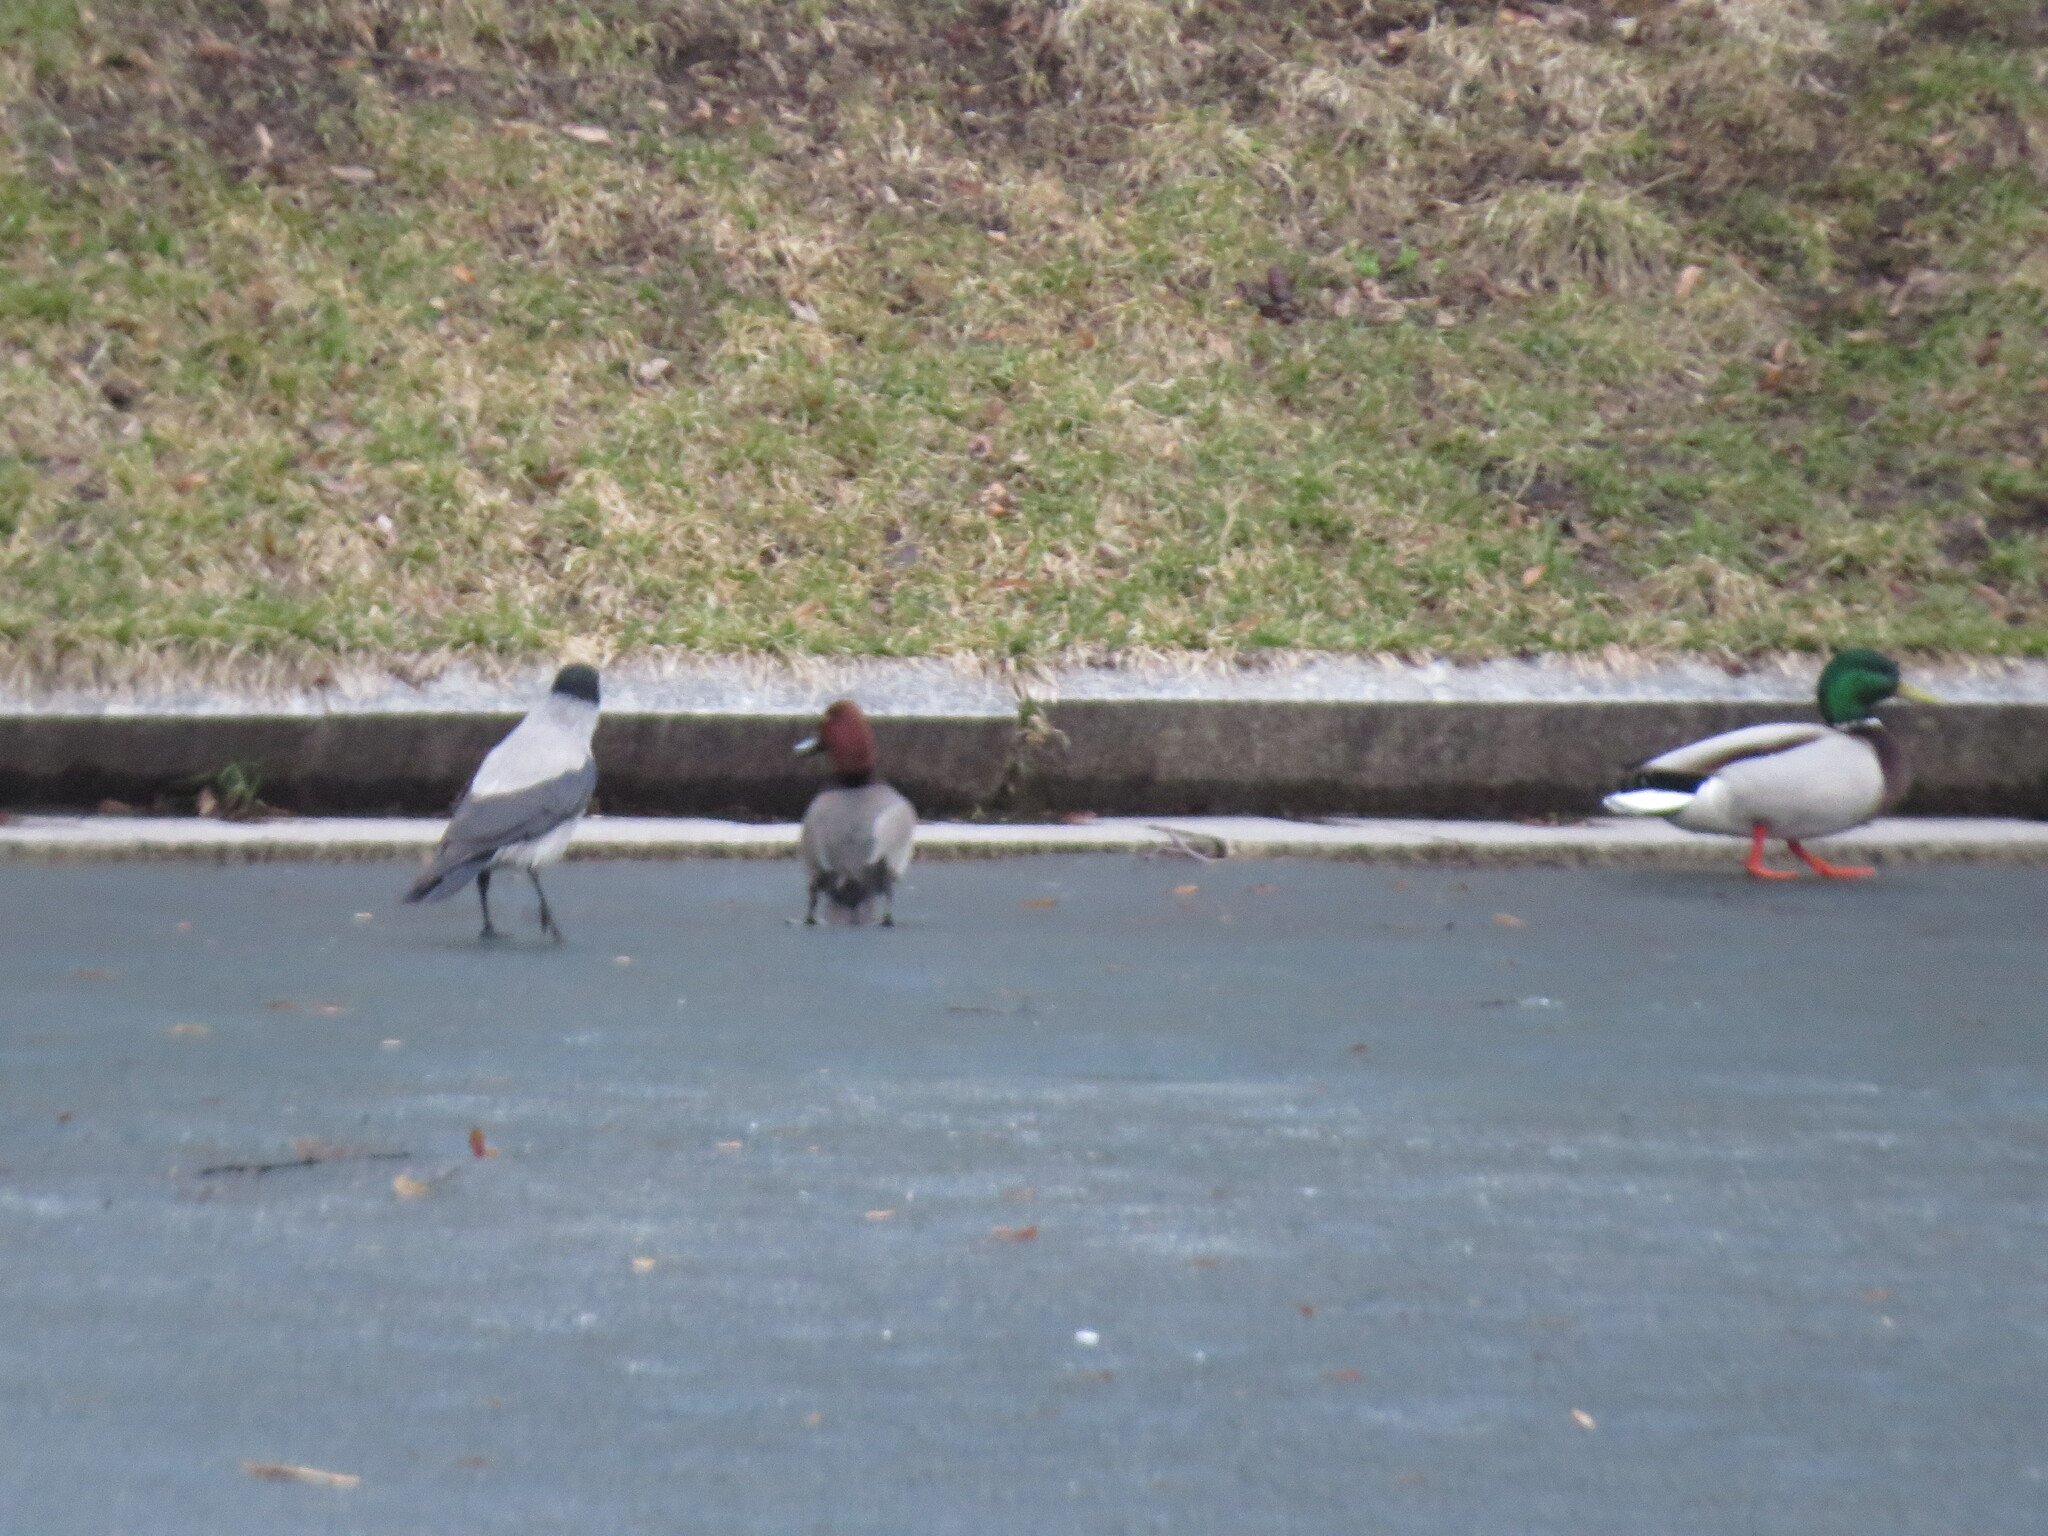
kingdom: Animalia
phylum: Chordata
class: Aves
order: Anseriformes
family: Anatidae
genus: Aythya
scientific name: Aythya ferina
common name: Common pochard
